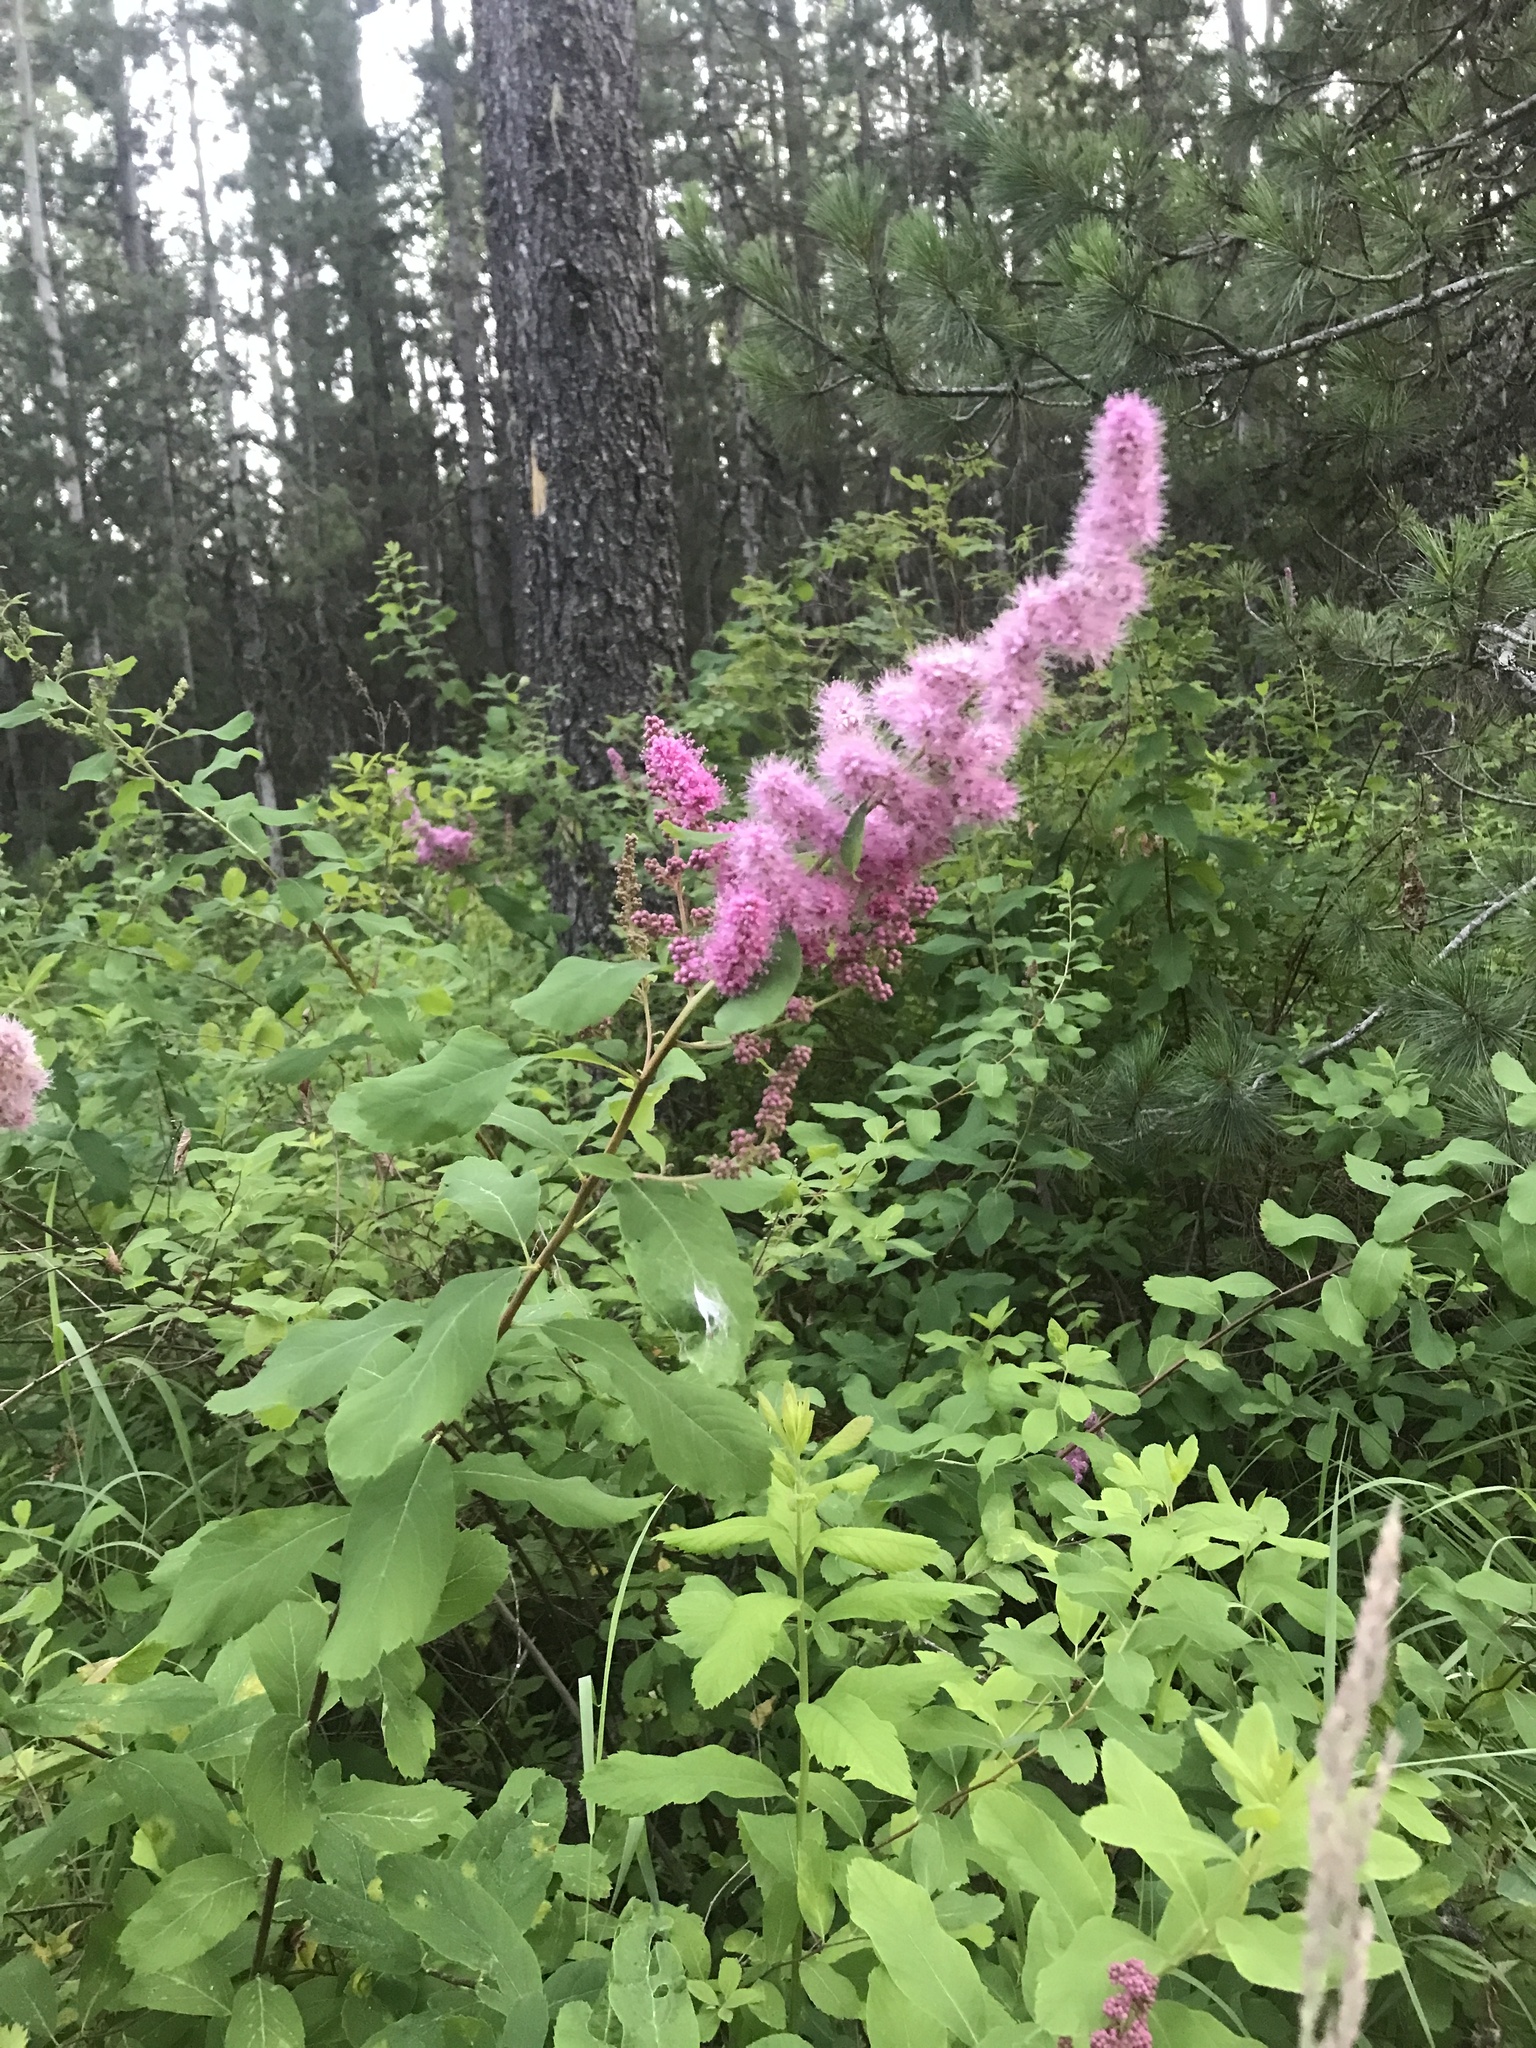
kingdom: Plantae
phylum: Tracheophyta
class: Magnoliopsida
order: Rosales
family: Rosaceae
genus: Spiraea
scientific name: Spiraea douglasii
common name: Steeplebush
